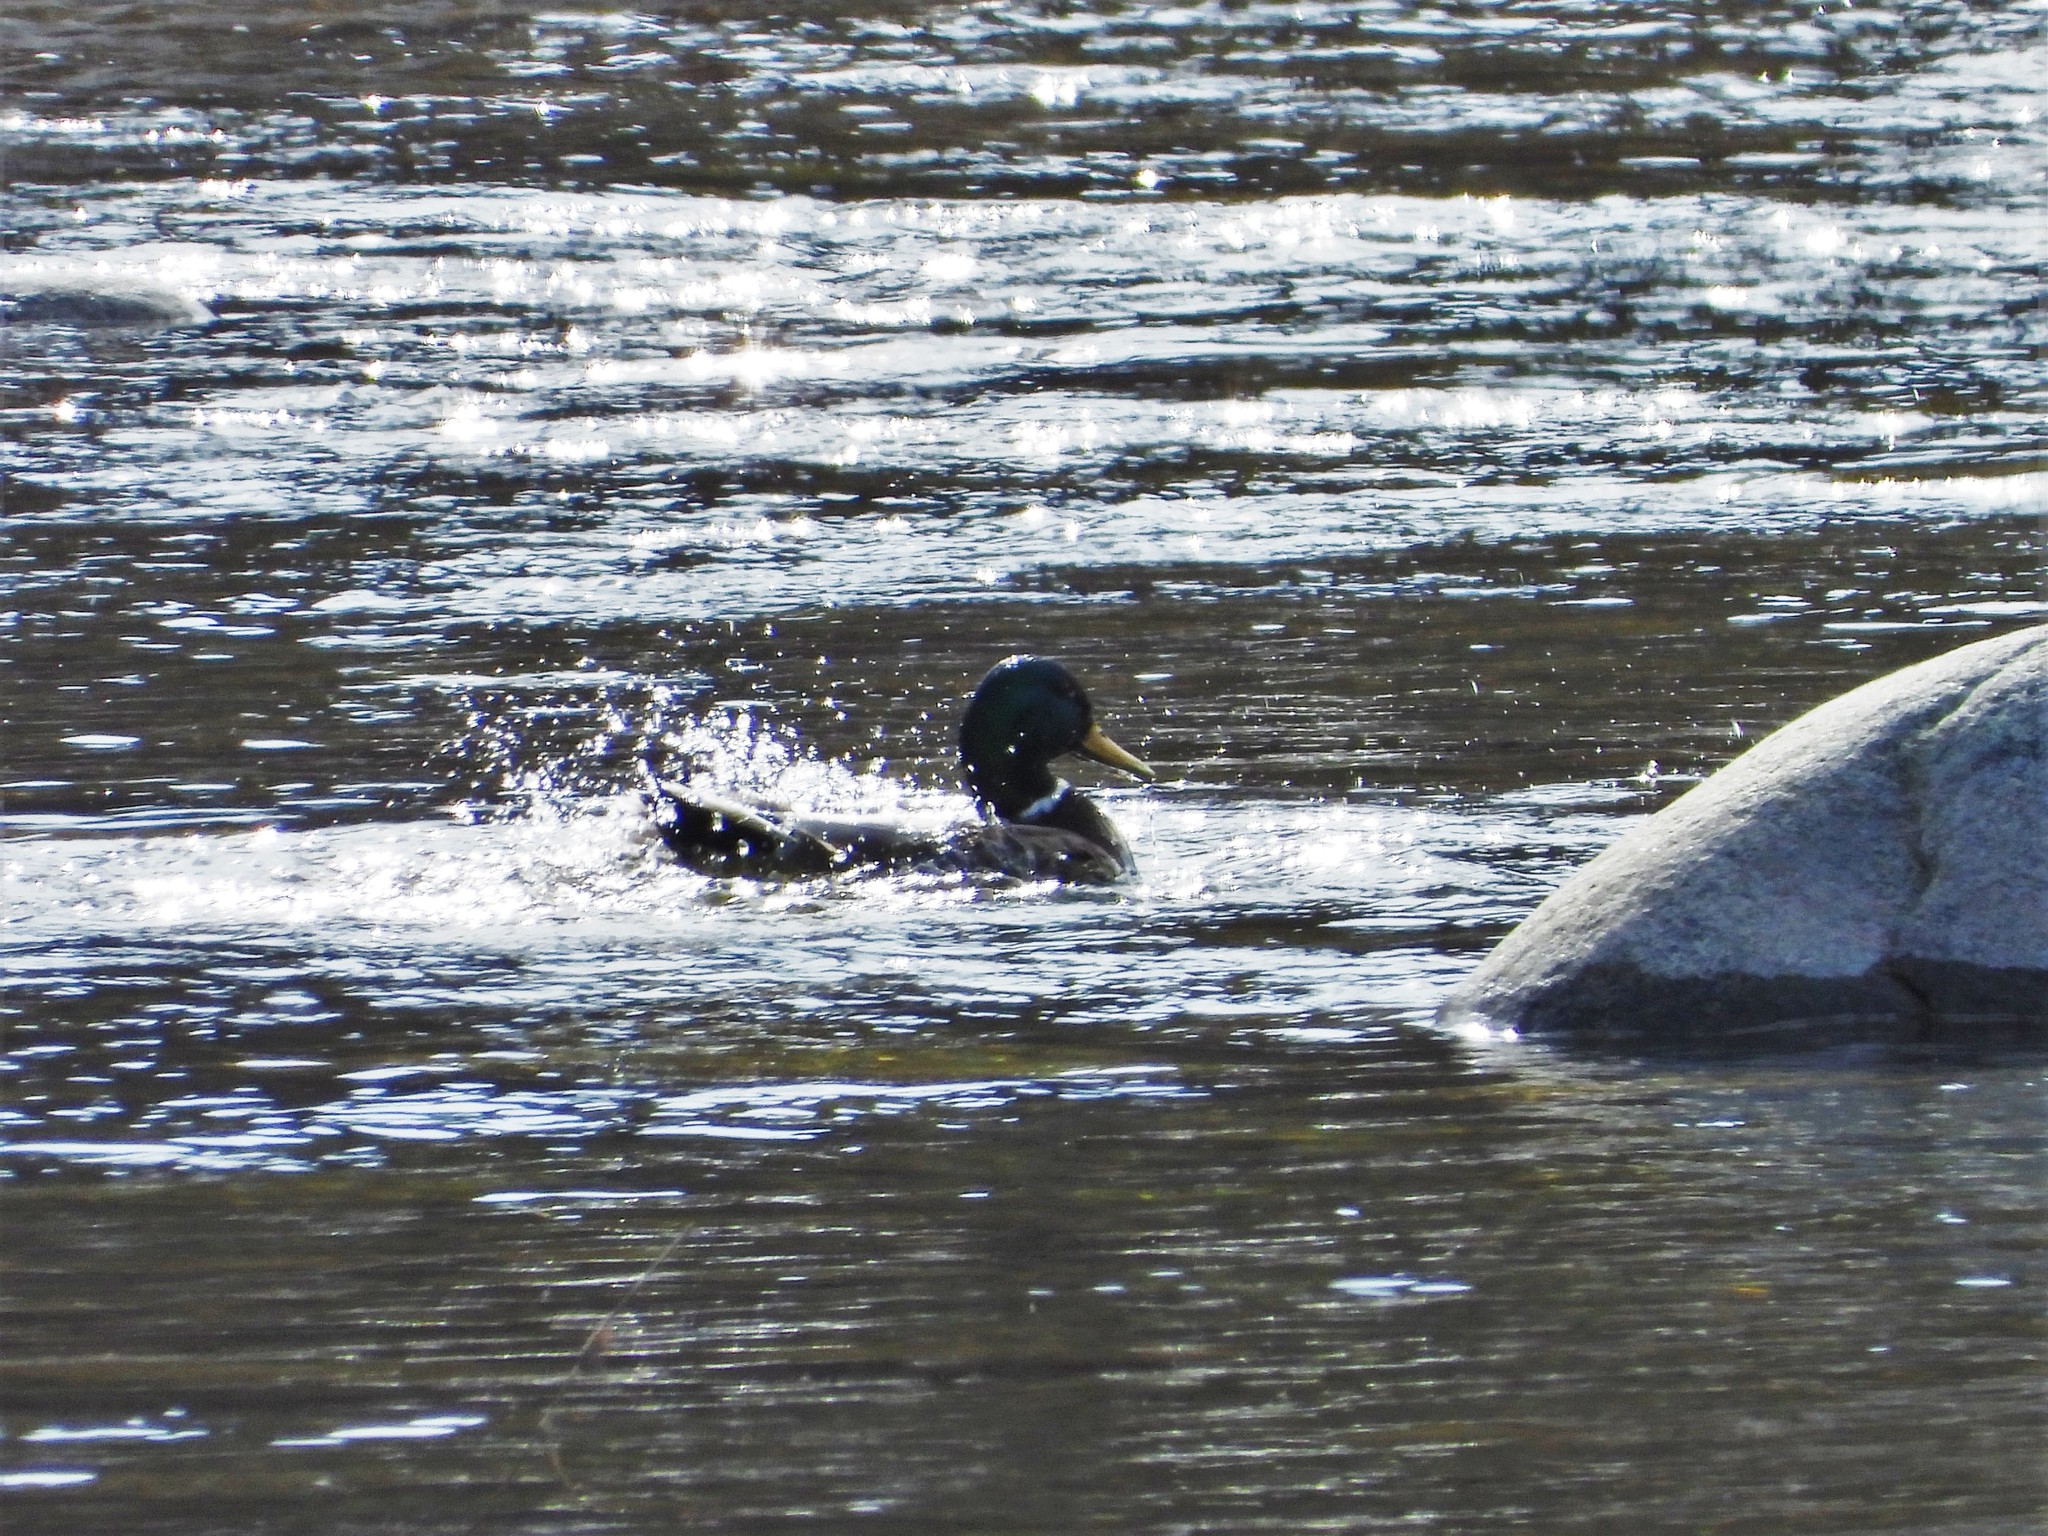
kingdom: Animalia
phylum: Chordata
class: Aves
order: Anseriformes
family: Anatidae
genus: Anas
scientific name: Anas platyrhynchos
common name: Mallard
